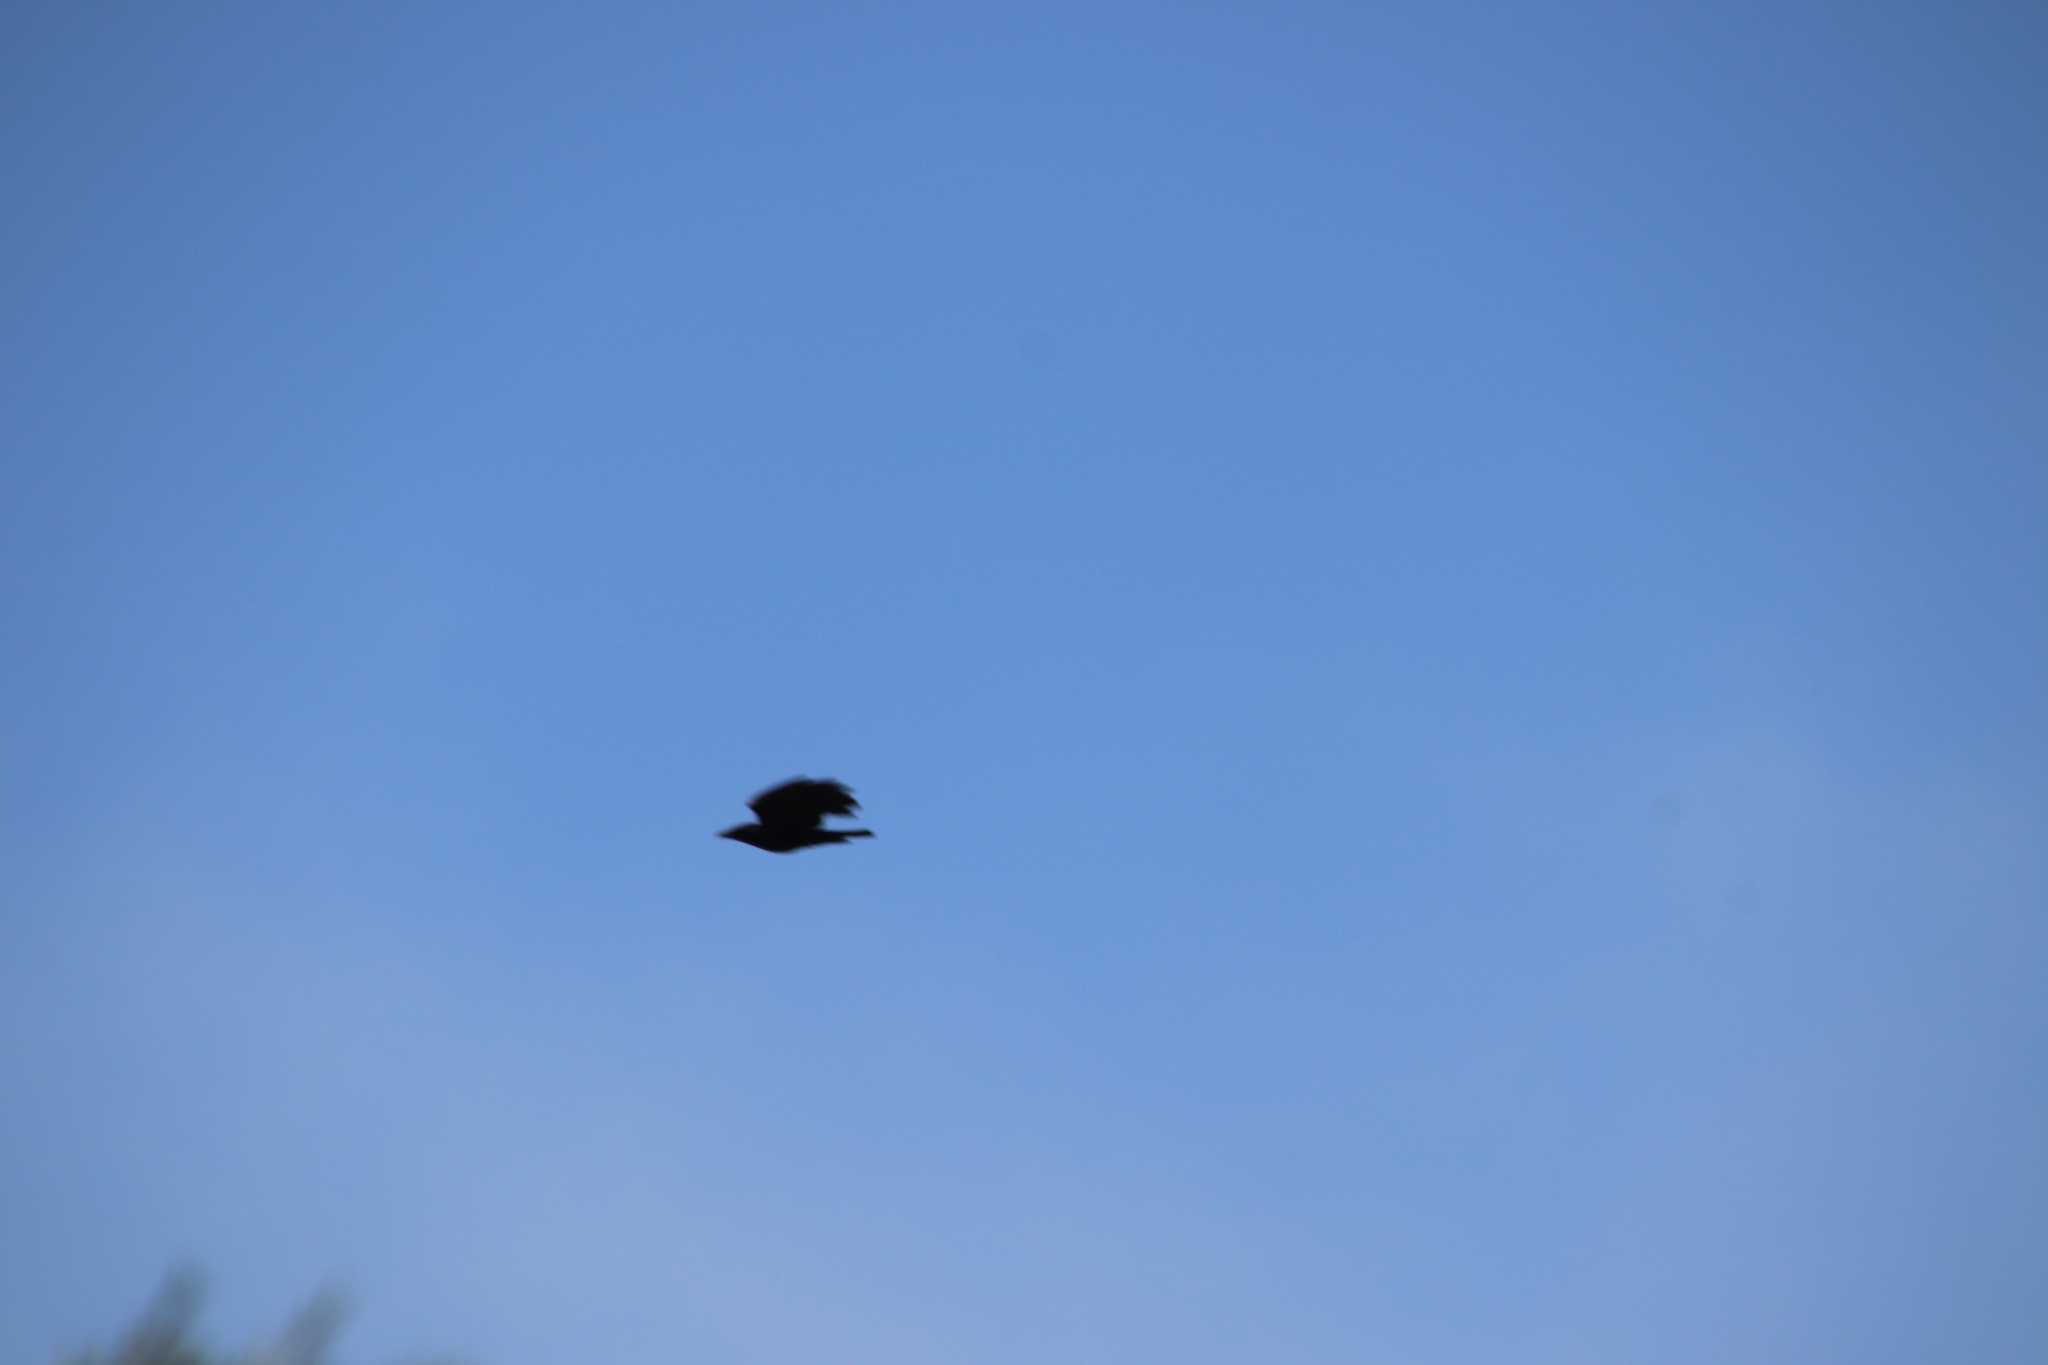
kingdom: Animalia
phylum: Chordata
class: Aves
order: Passeriformes
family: Corvidae
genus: Corvus
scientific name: Corvus brachyrhynchos
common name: American crow
